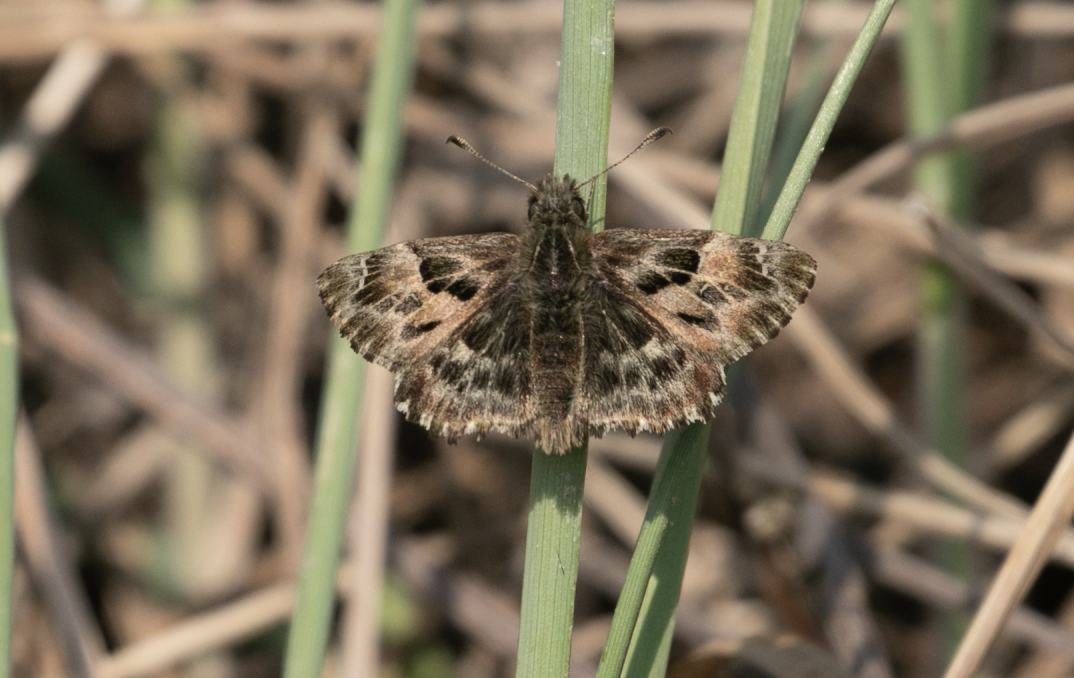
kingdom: Animalia
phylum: Arthropoda
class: Insecta
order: Lepidoptera
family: Hesperiidae
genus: Carcharodus
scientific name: Carcharodus alceae
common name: Mallow skipper
